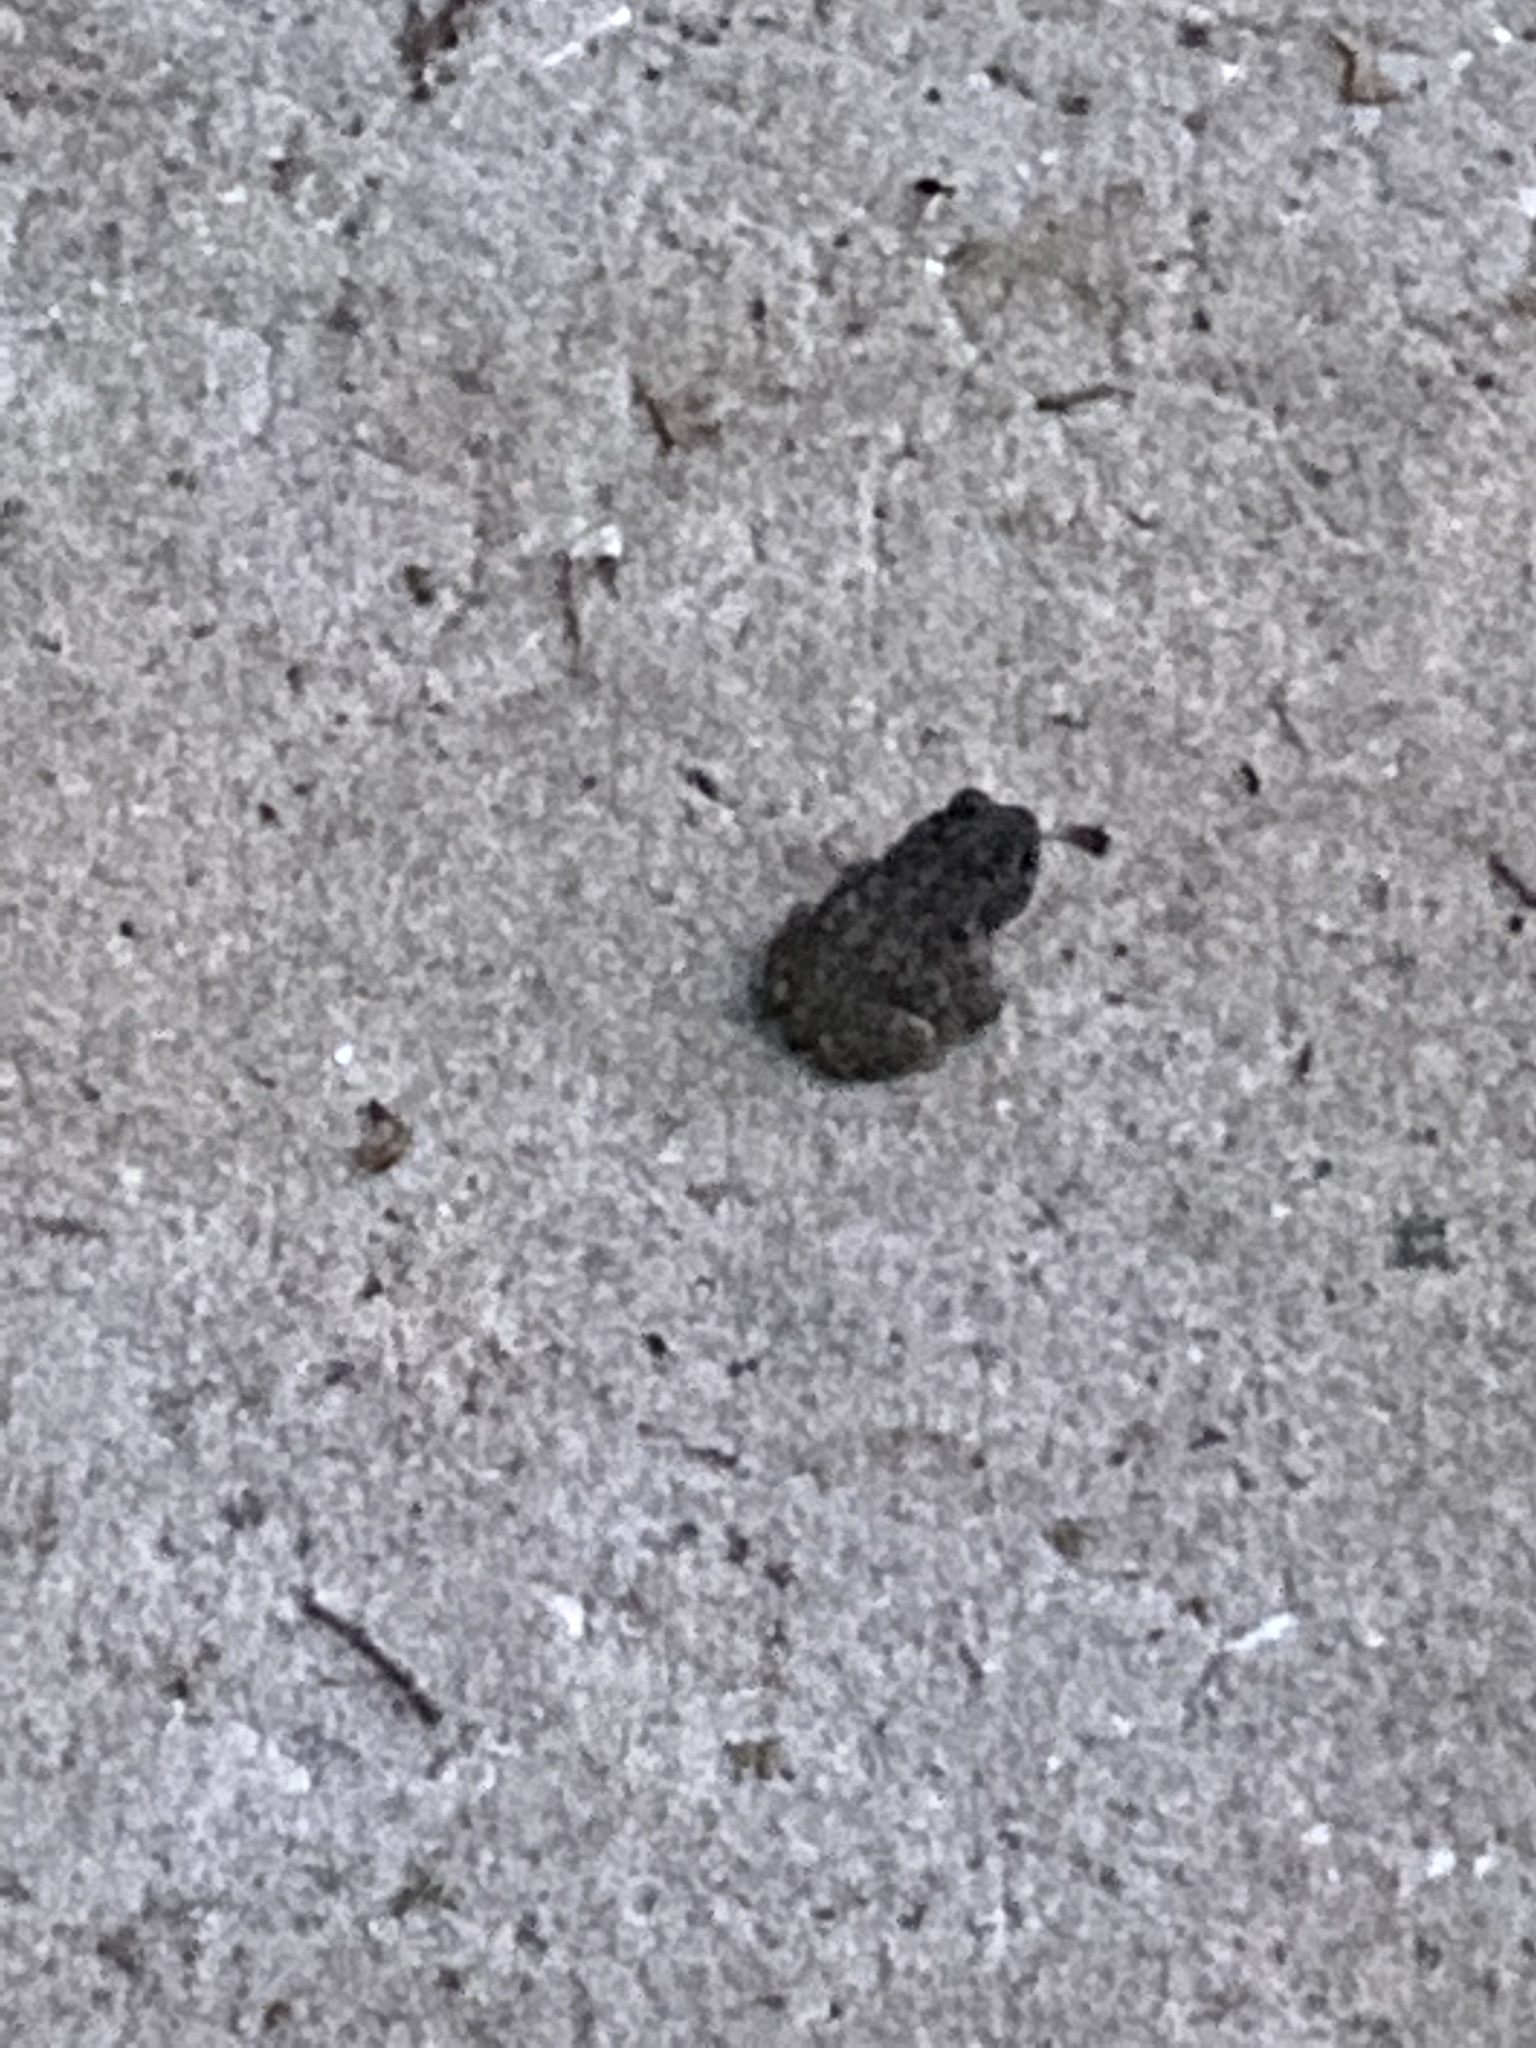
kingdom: Animalia
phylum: Chordata
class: Amphibia
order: Anura
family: Bufonidae
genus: Anaxyrus
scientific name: Anaxyrus terrestris
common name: Southern toad
